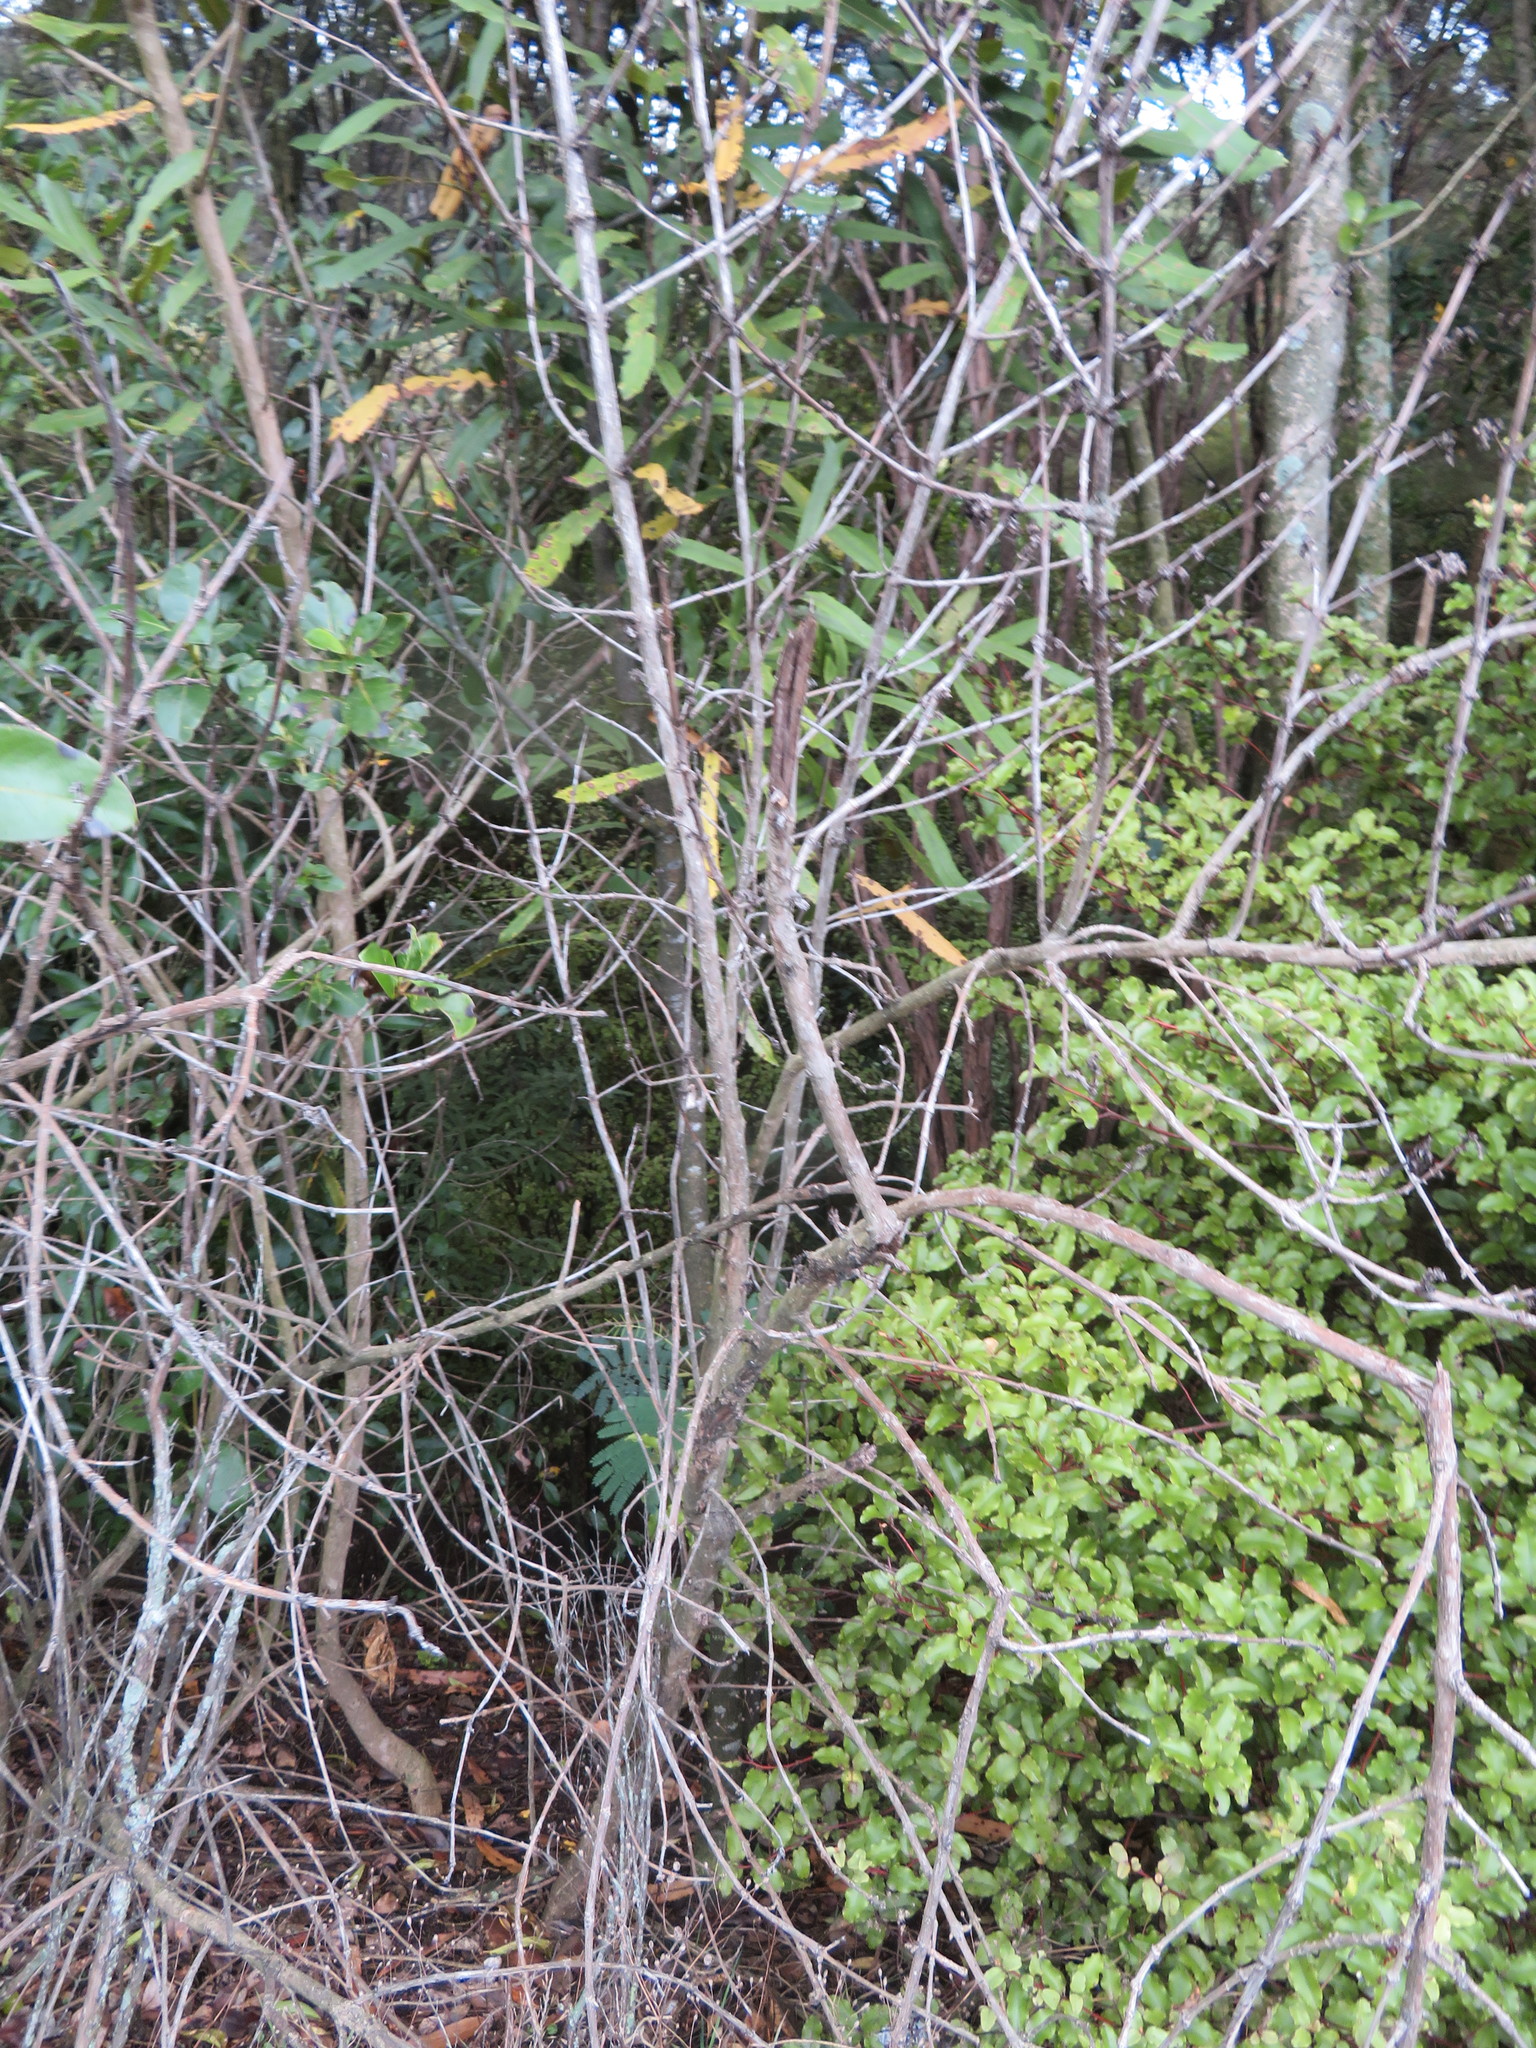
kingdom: Plantae
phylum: Tracheophyta
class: Magnoliopsida
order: Fabales
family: Fabaceae
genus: Paraserianthes
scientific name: Paraserianthes lophantha
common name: Plume albizia
